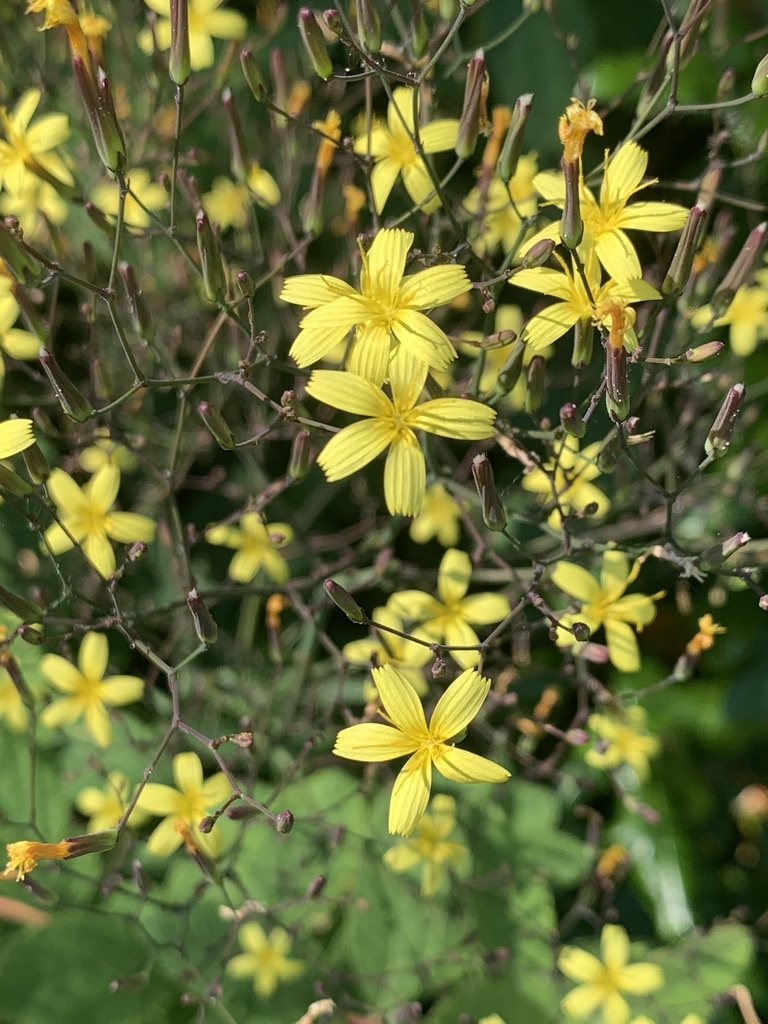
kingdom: Plantae
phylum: Tracheophyta
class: Magnoliopsida
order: Asterales
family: Asteraceae
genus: Mycelis
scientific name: Mycelis muralis
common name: Wall lettuce
